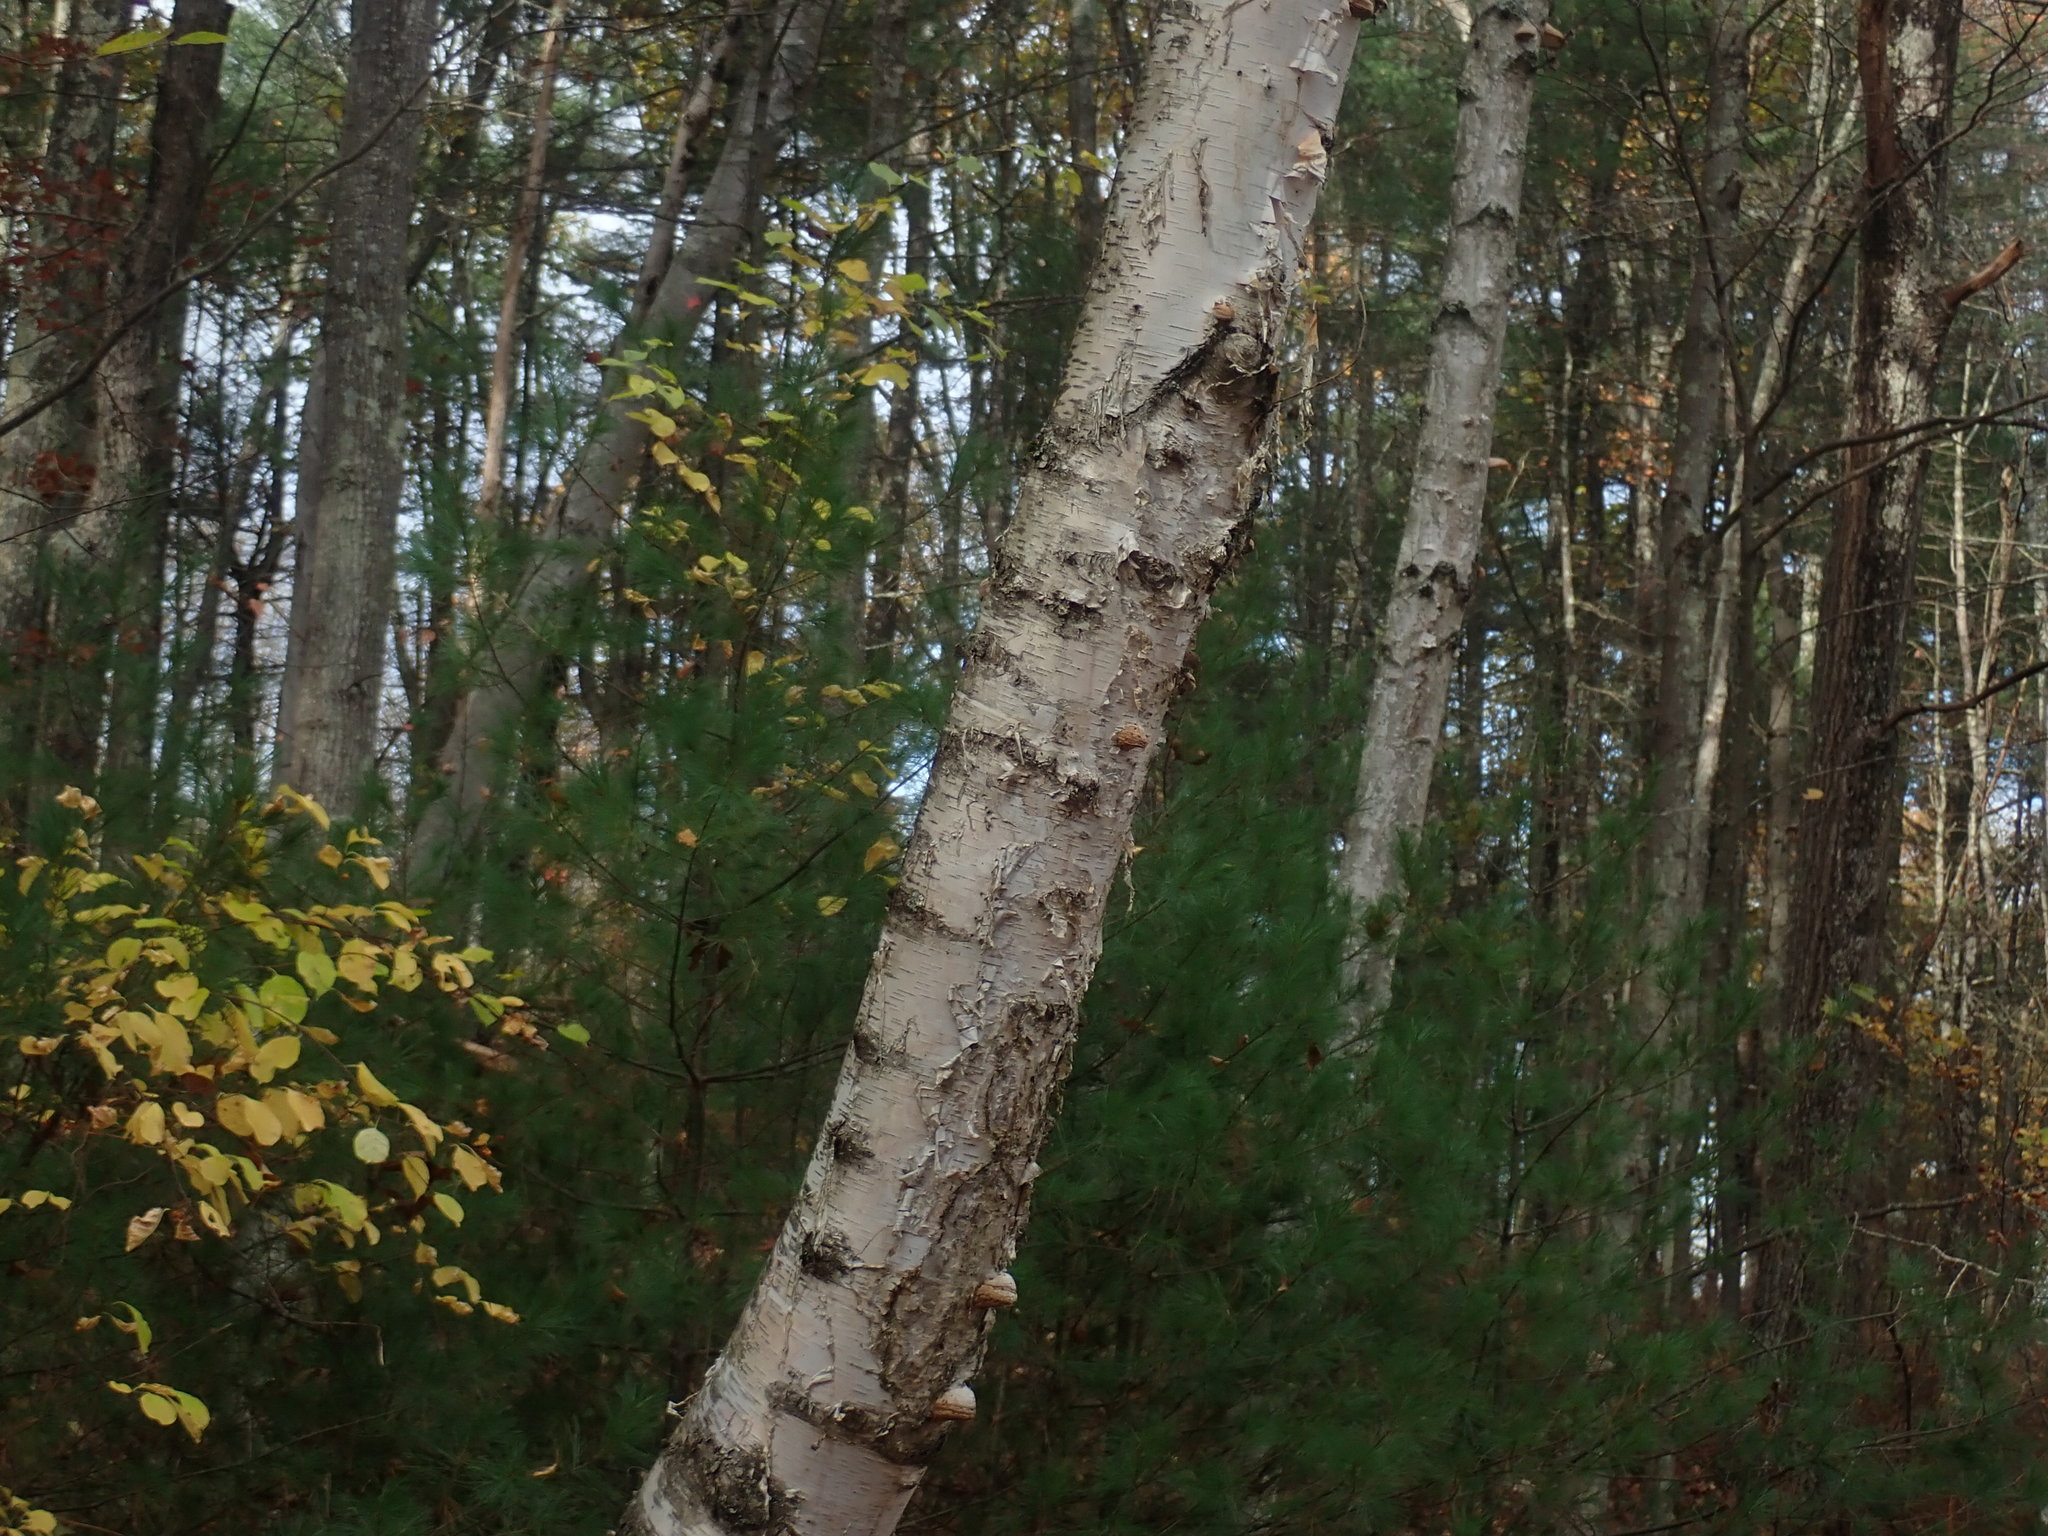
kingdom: Plantae
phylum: Tracheophyta
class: Magnoliopsida
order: Fagales
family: Betulaceae
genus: Betula
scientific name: Betula papyrifera
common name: Paper birch
